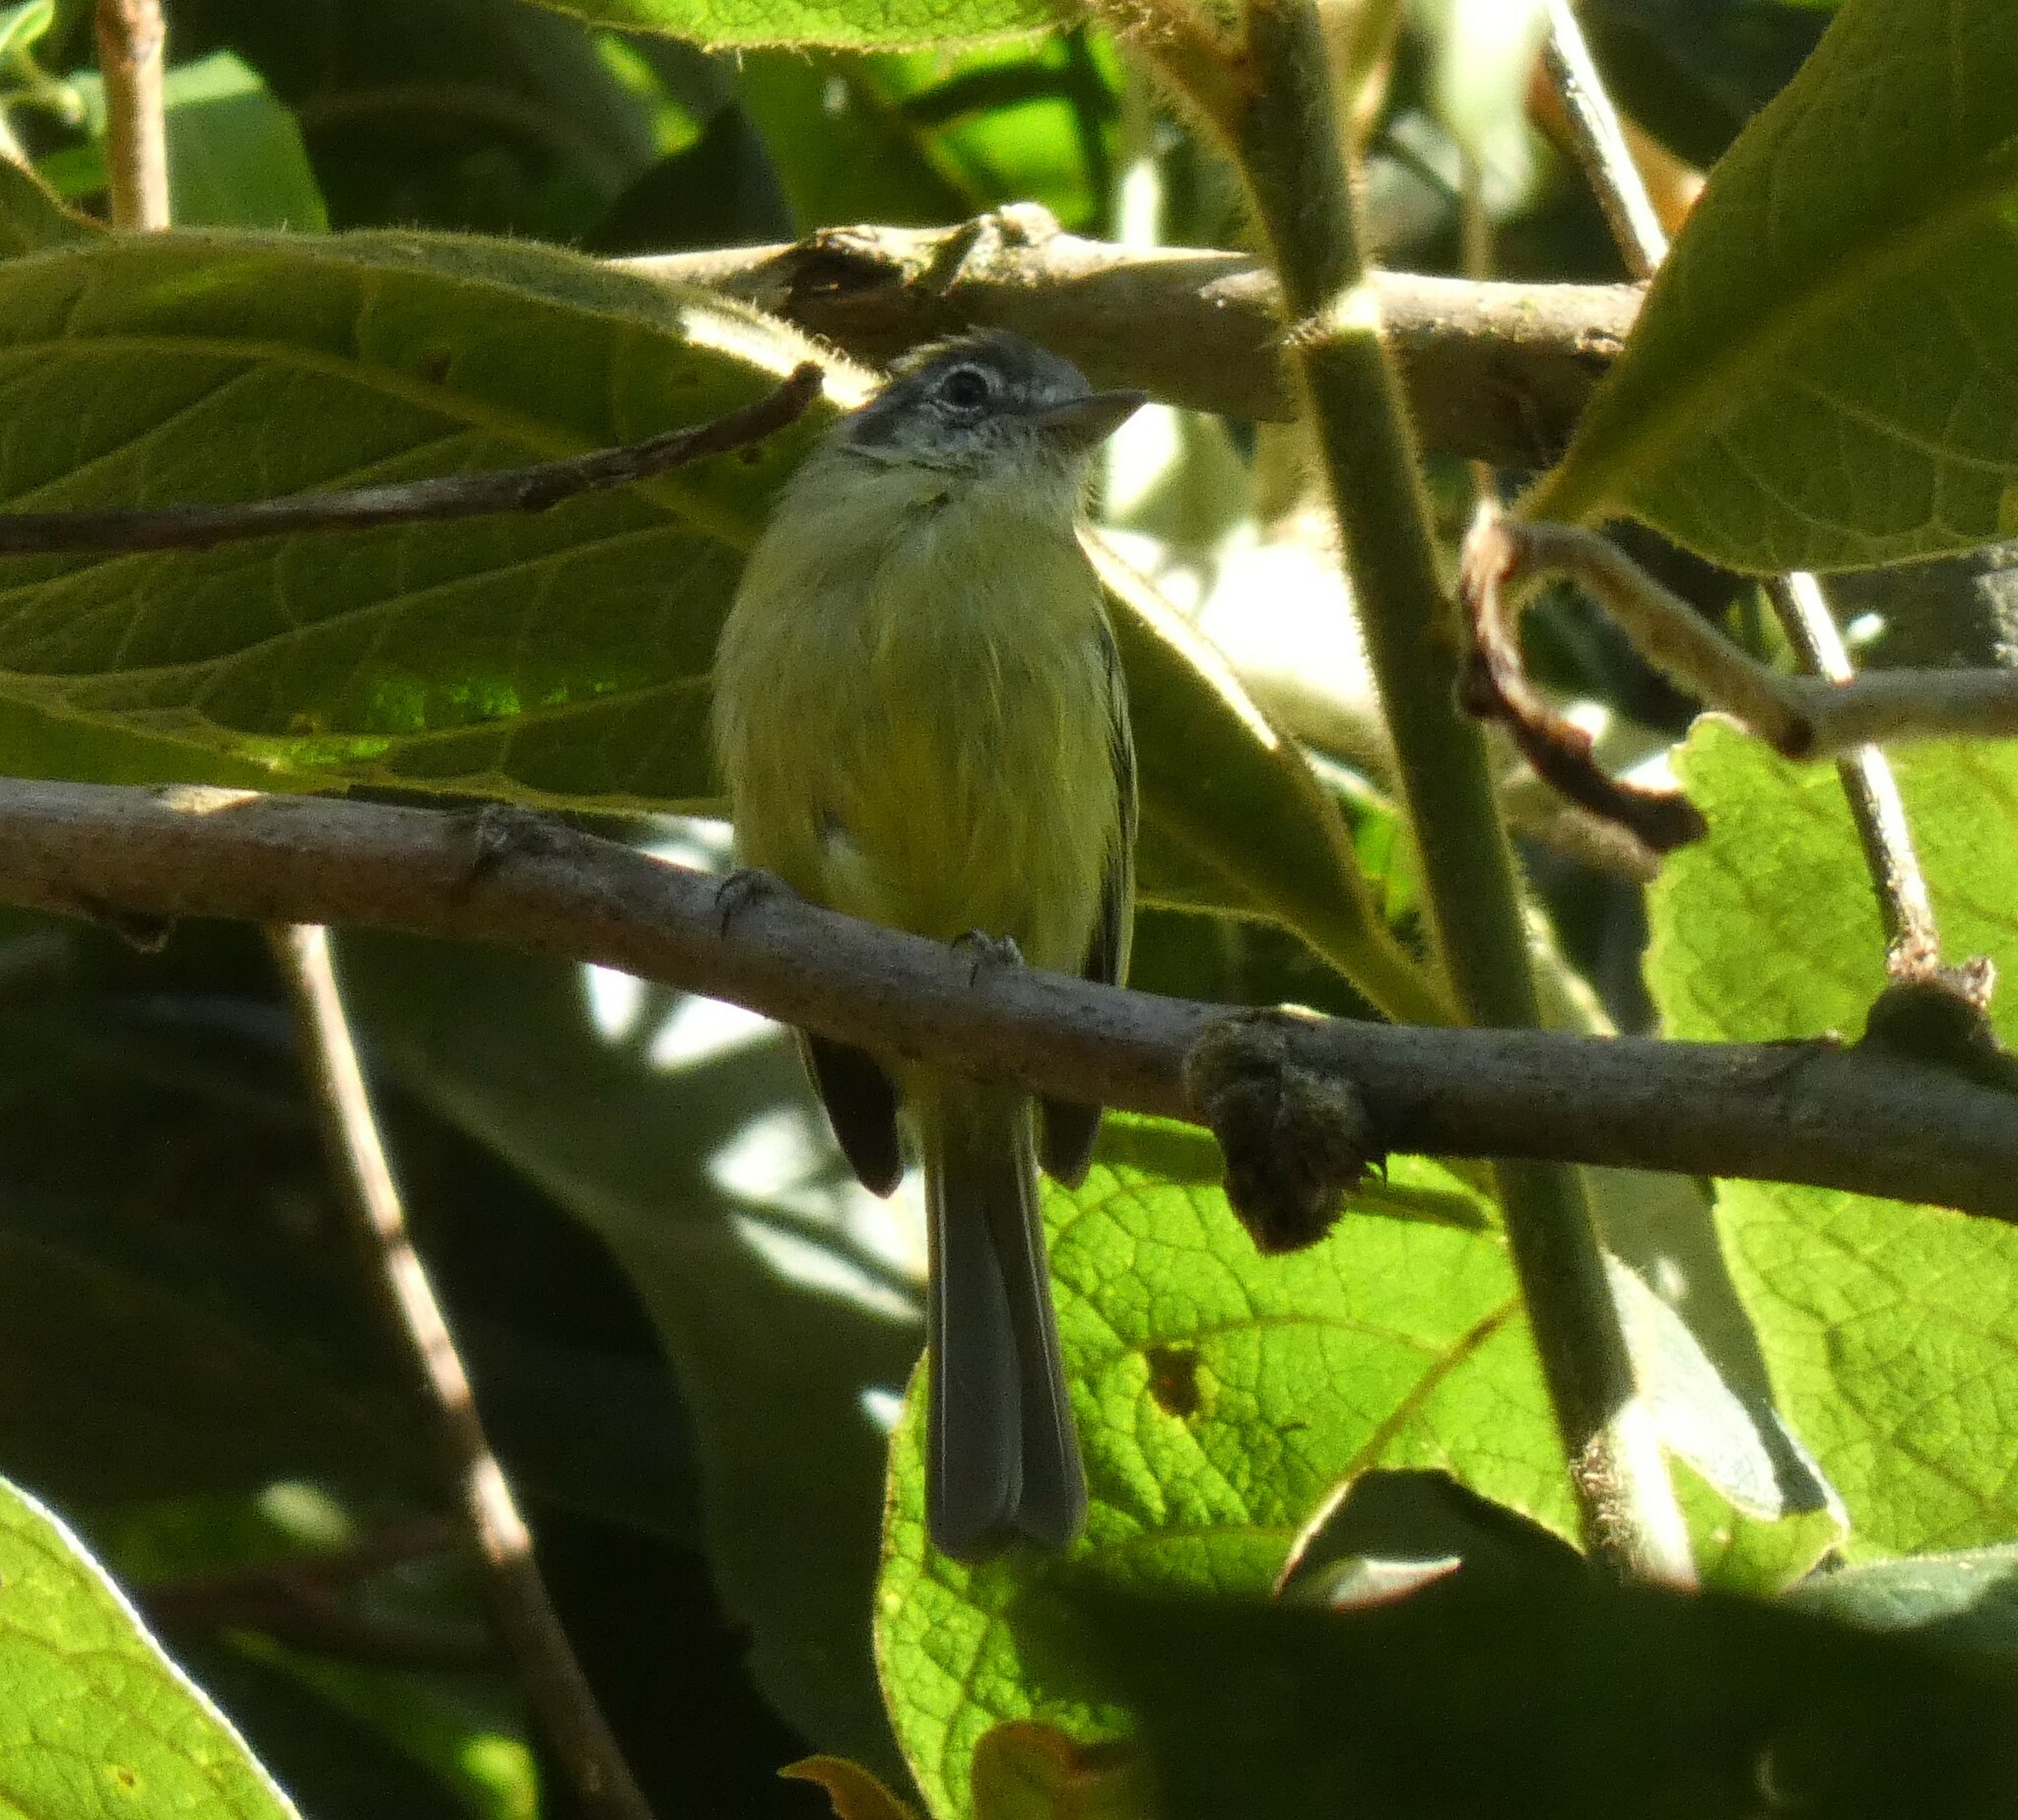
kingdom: Animalia
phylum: Chordata
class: Aves
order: Passeriformes
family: Tyrannidae
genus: Tolmomyias
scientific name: Tolmomyias sulphurescens
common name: Yellow-olive flycatcher
